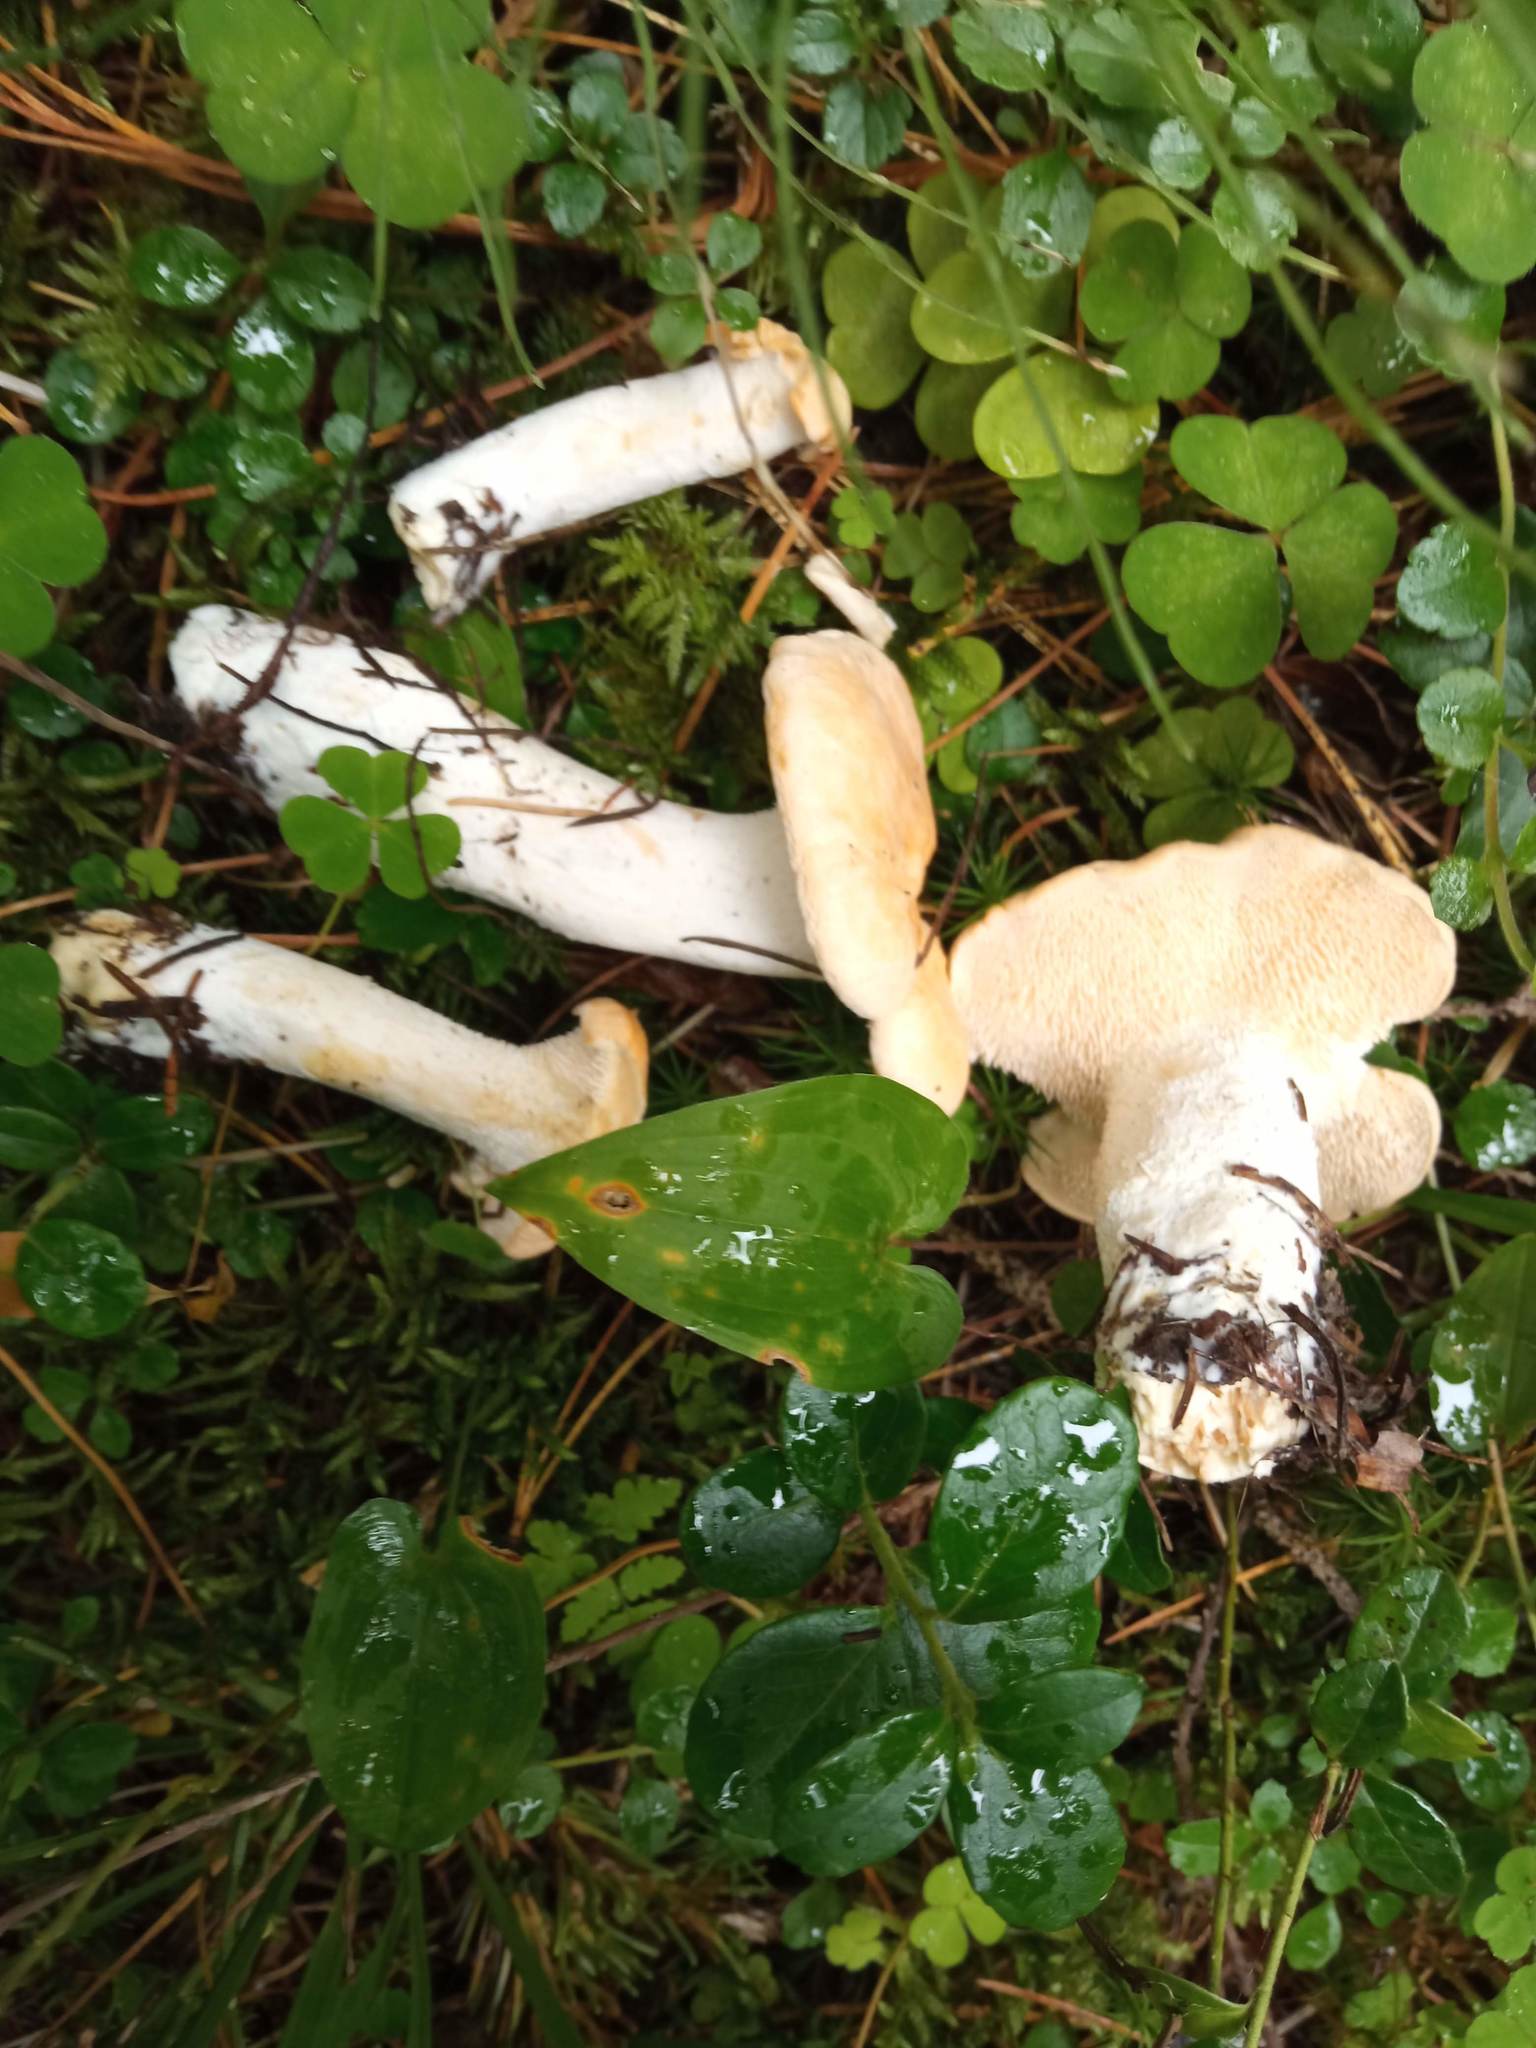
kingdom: Fungi
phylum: Basidiomycota
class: Agaricomycetes
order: Cantharellales
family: Hydnaceae
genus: Hydnum
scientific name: Hydnum repandum
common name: Wood hedgehog
